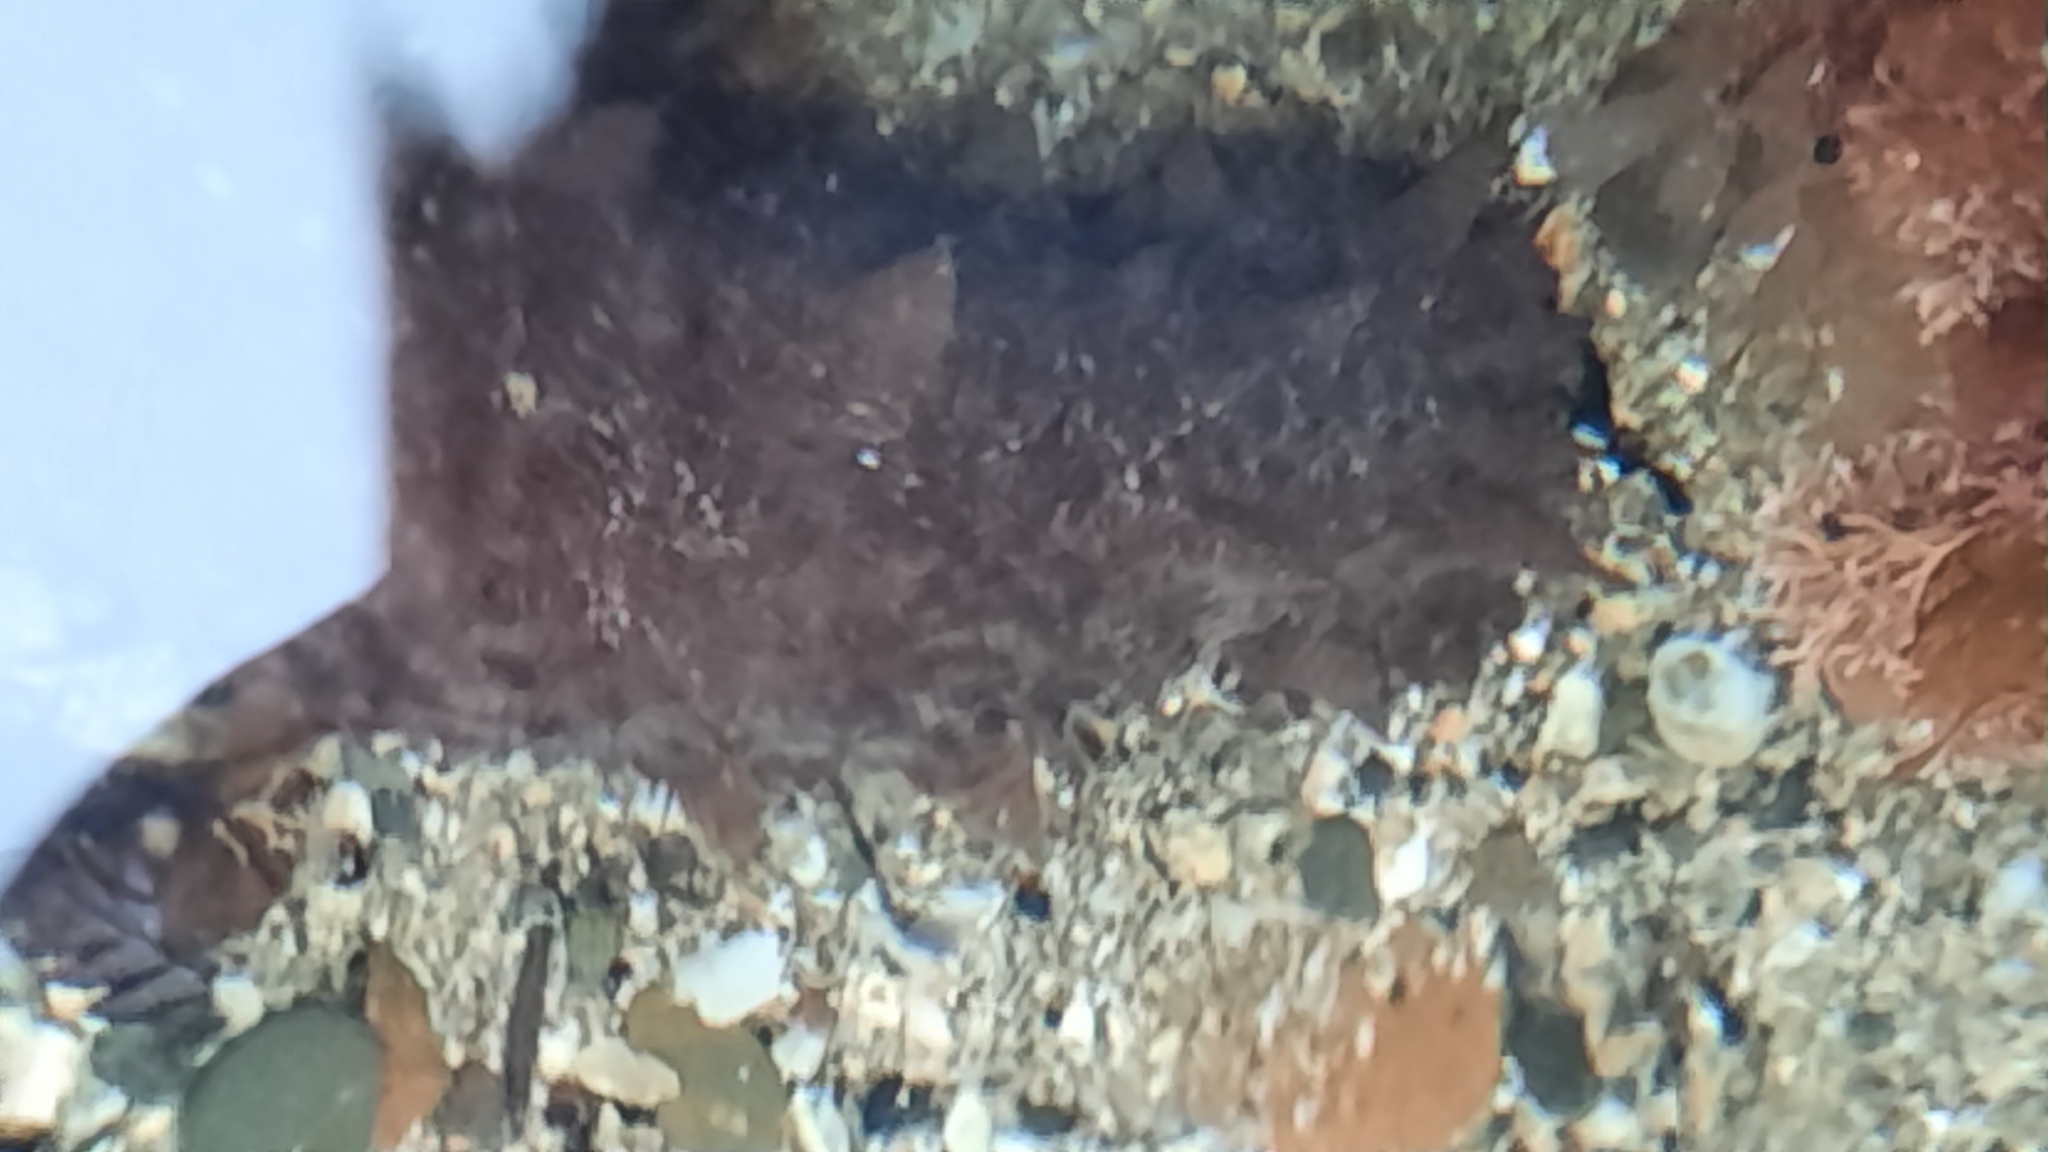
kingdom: Animalia
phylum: Echinodermata
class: Holothuroidea
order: Synallactida
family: Stichopodidae
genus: Australostichopus
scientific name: Australostichopus mollis
